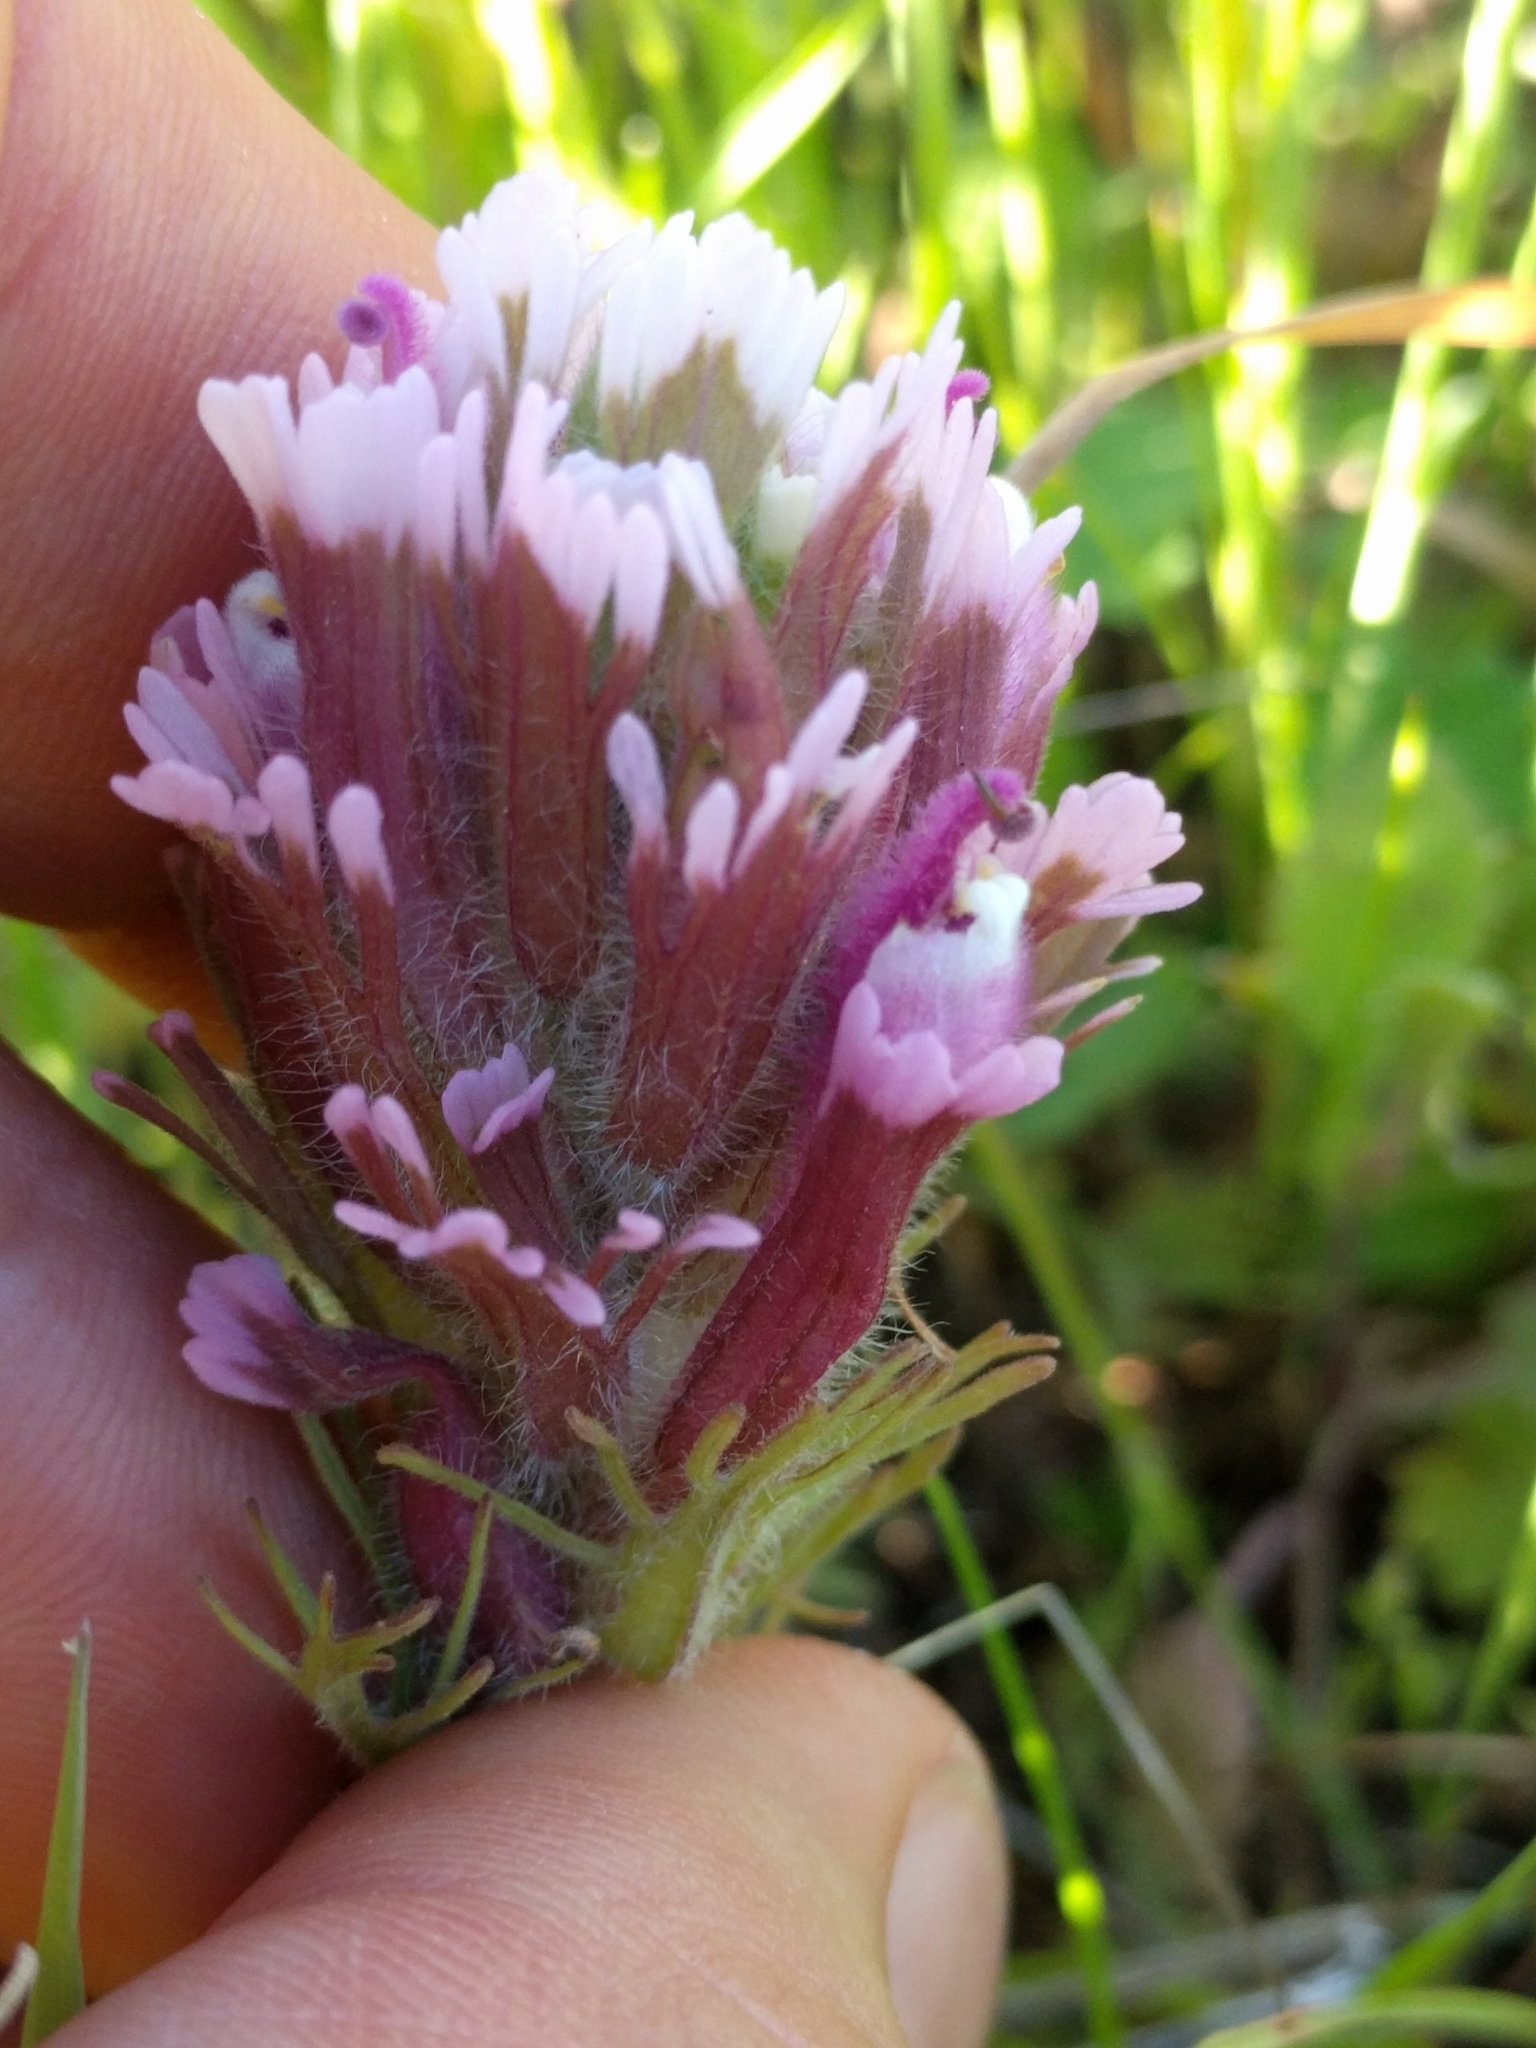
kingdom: Plantae
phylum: Tracheophyta
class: Magnoliopsida
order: Lamiales
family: Orobanchaceae
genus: Castilleja
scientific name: Castilleja exserta
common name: Purple owl-clover
